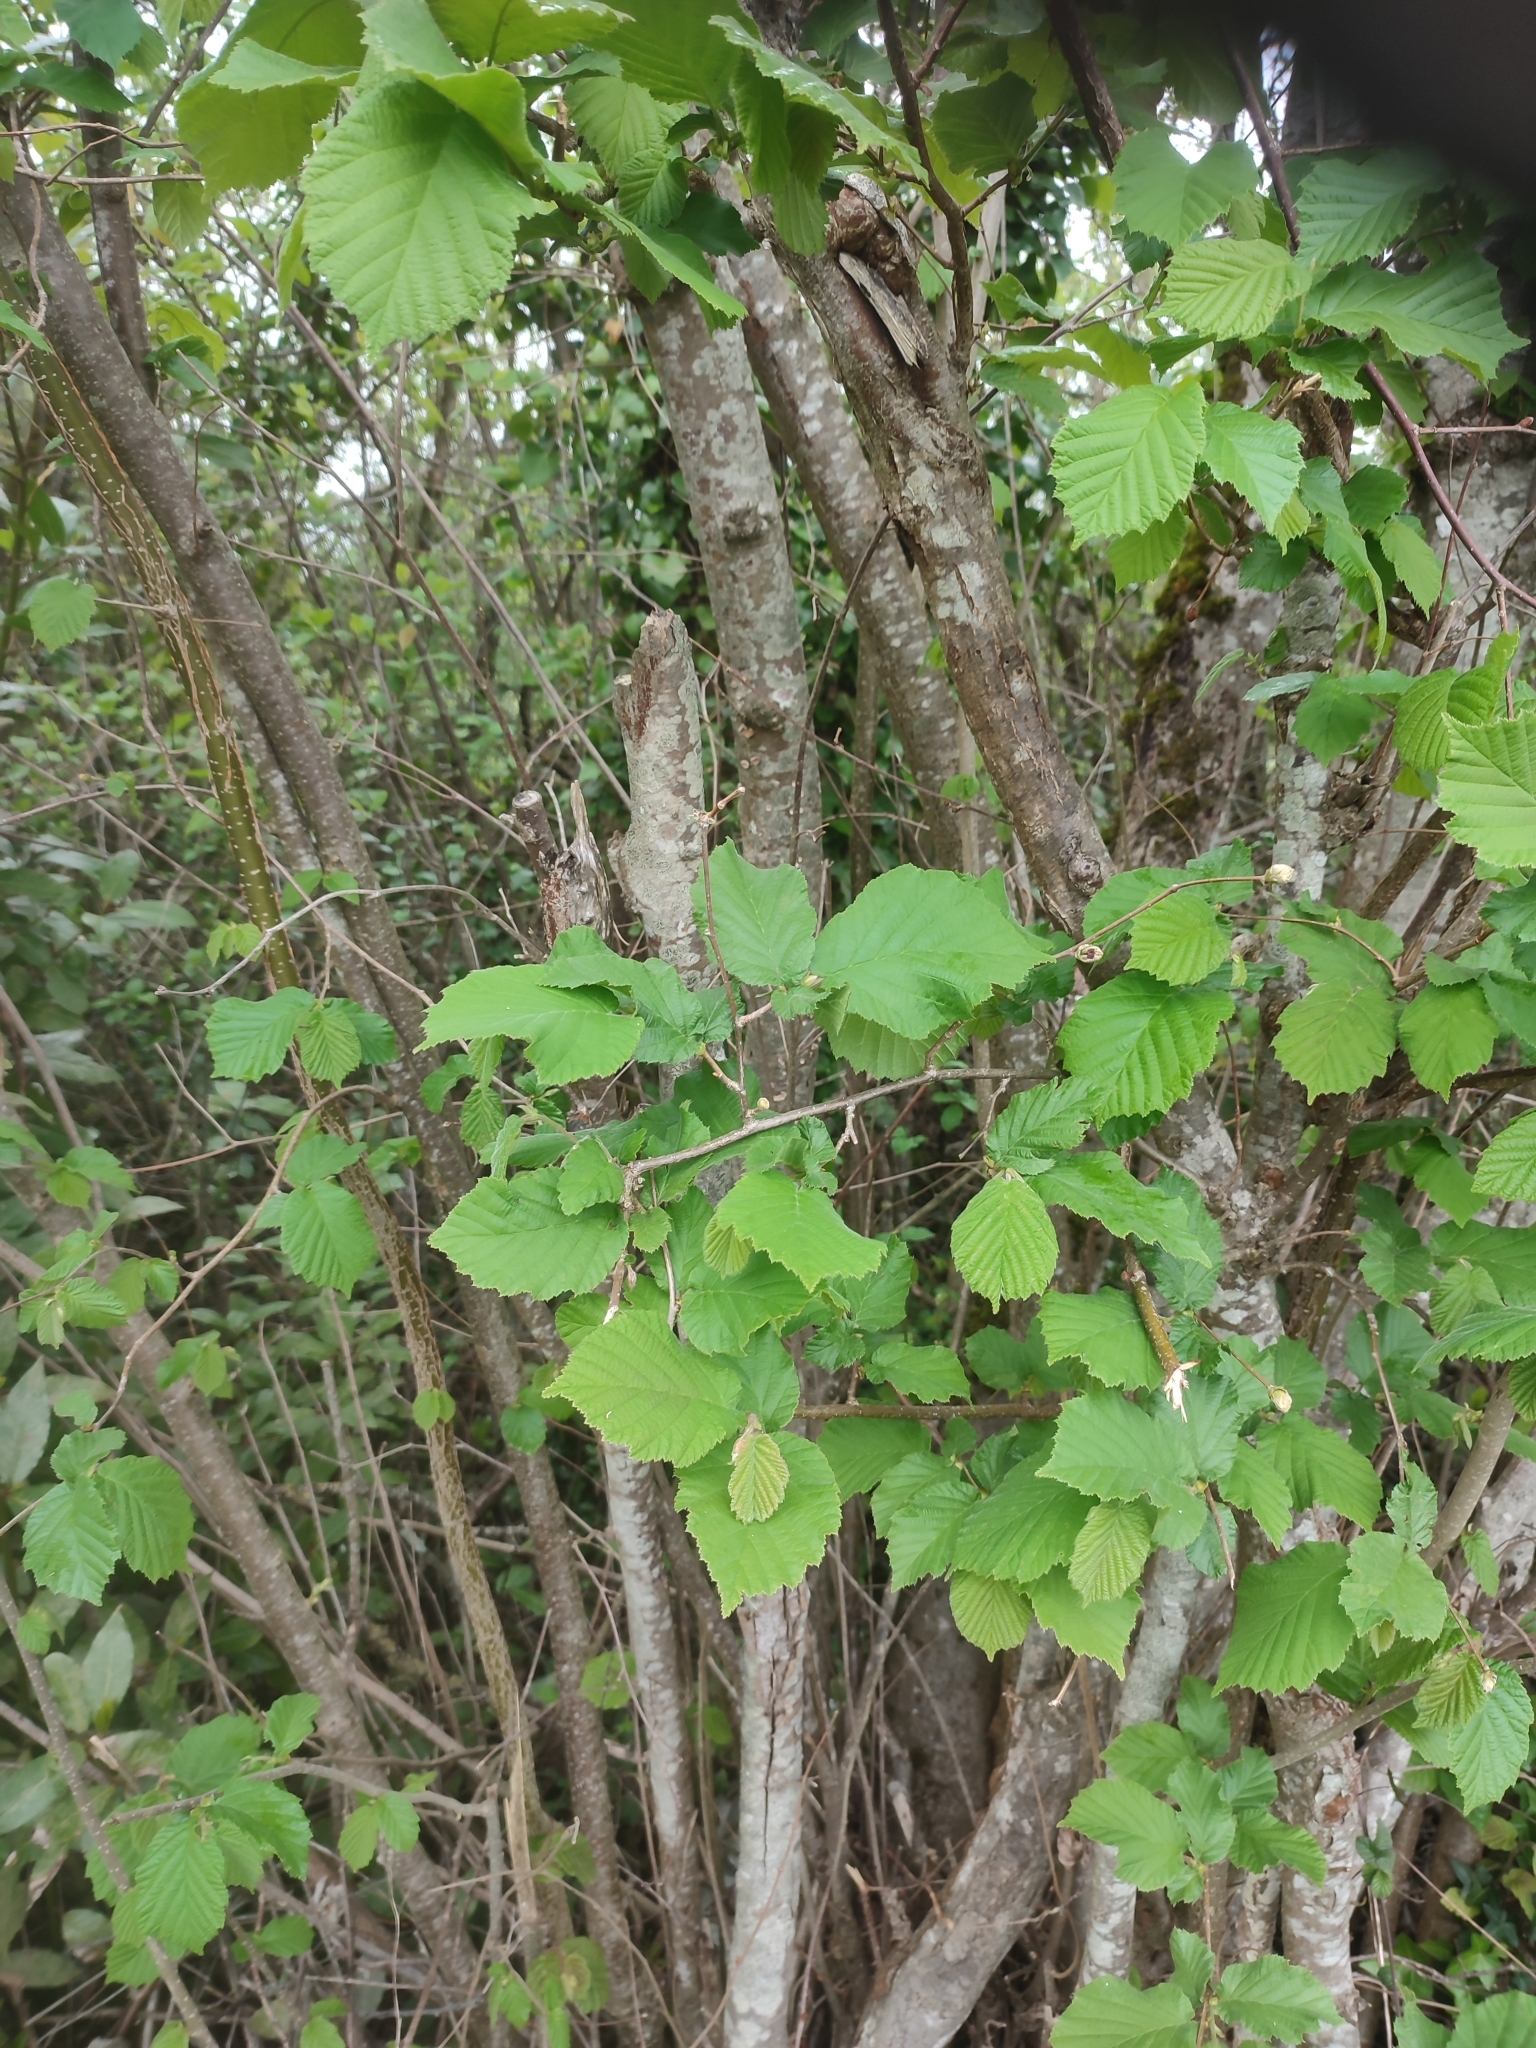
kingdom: Plantae
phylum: Tracheophyta
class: Magnoliopsida
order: Fagales
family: Betulaceae
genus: Corylus
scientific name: Corylus avellana
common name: European hazel
